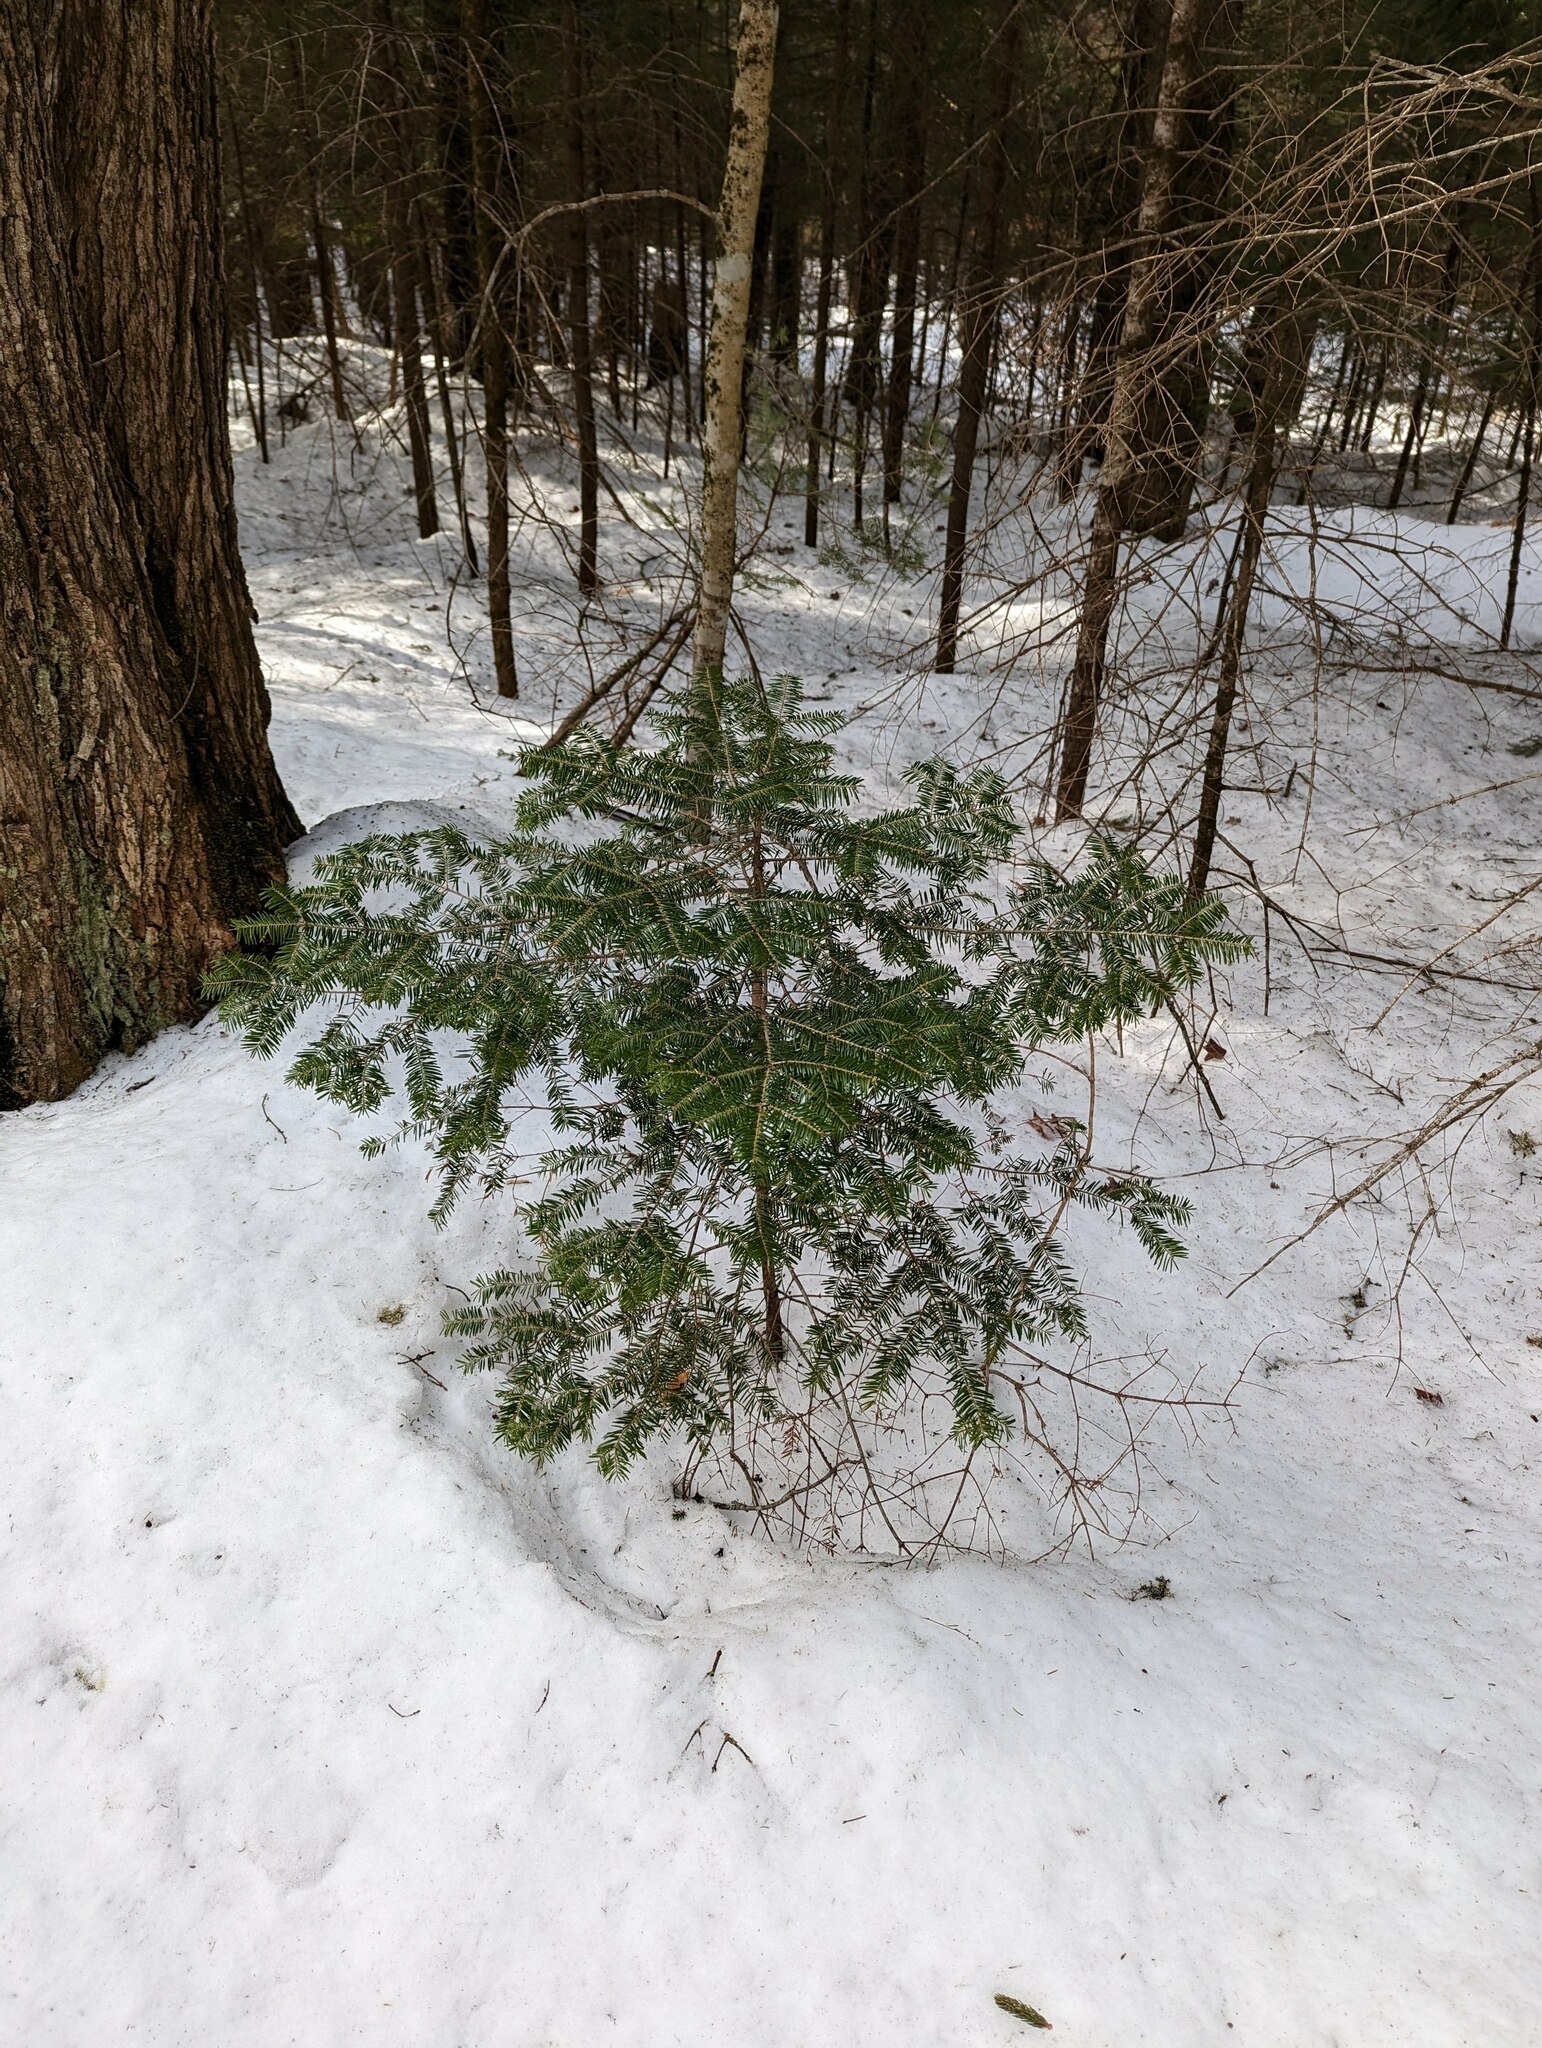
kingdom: Plantae
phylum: Tracheophyta
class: Pinopsida
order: Pinales
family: Pinaceae
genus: Abies
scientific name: Abies balsamea
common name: Balsam fir
